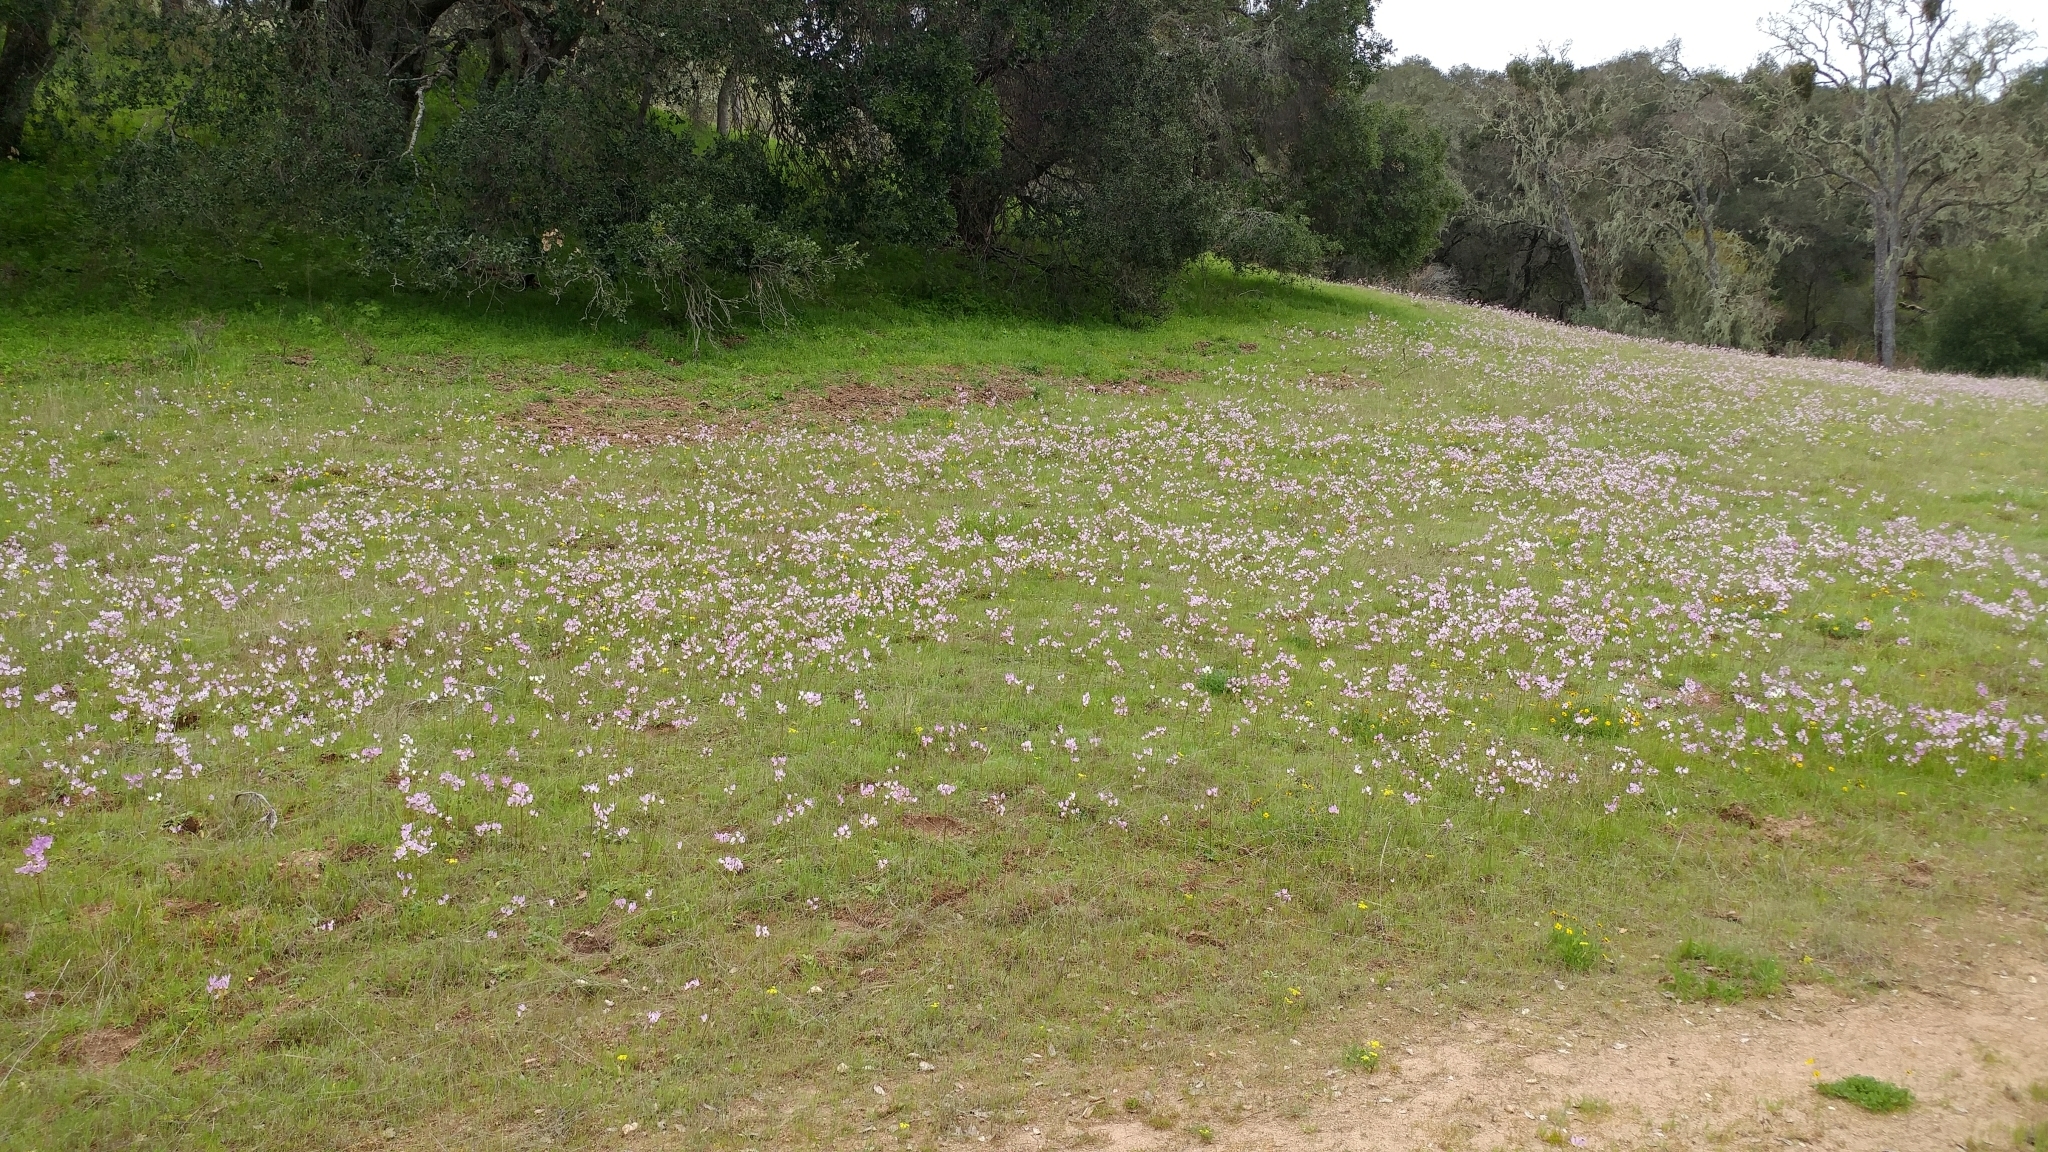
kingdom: Plantae
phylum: Tracheophyta
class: Magnoliopsida
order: Ericales
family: Primulaceae
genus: Dodecatheon
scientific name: Dodecatheon clevelandii
